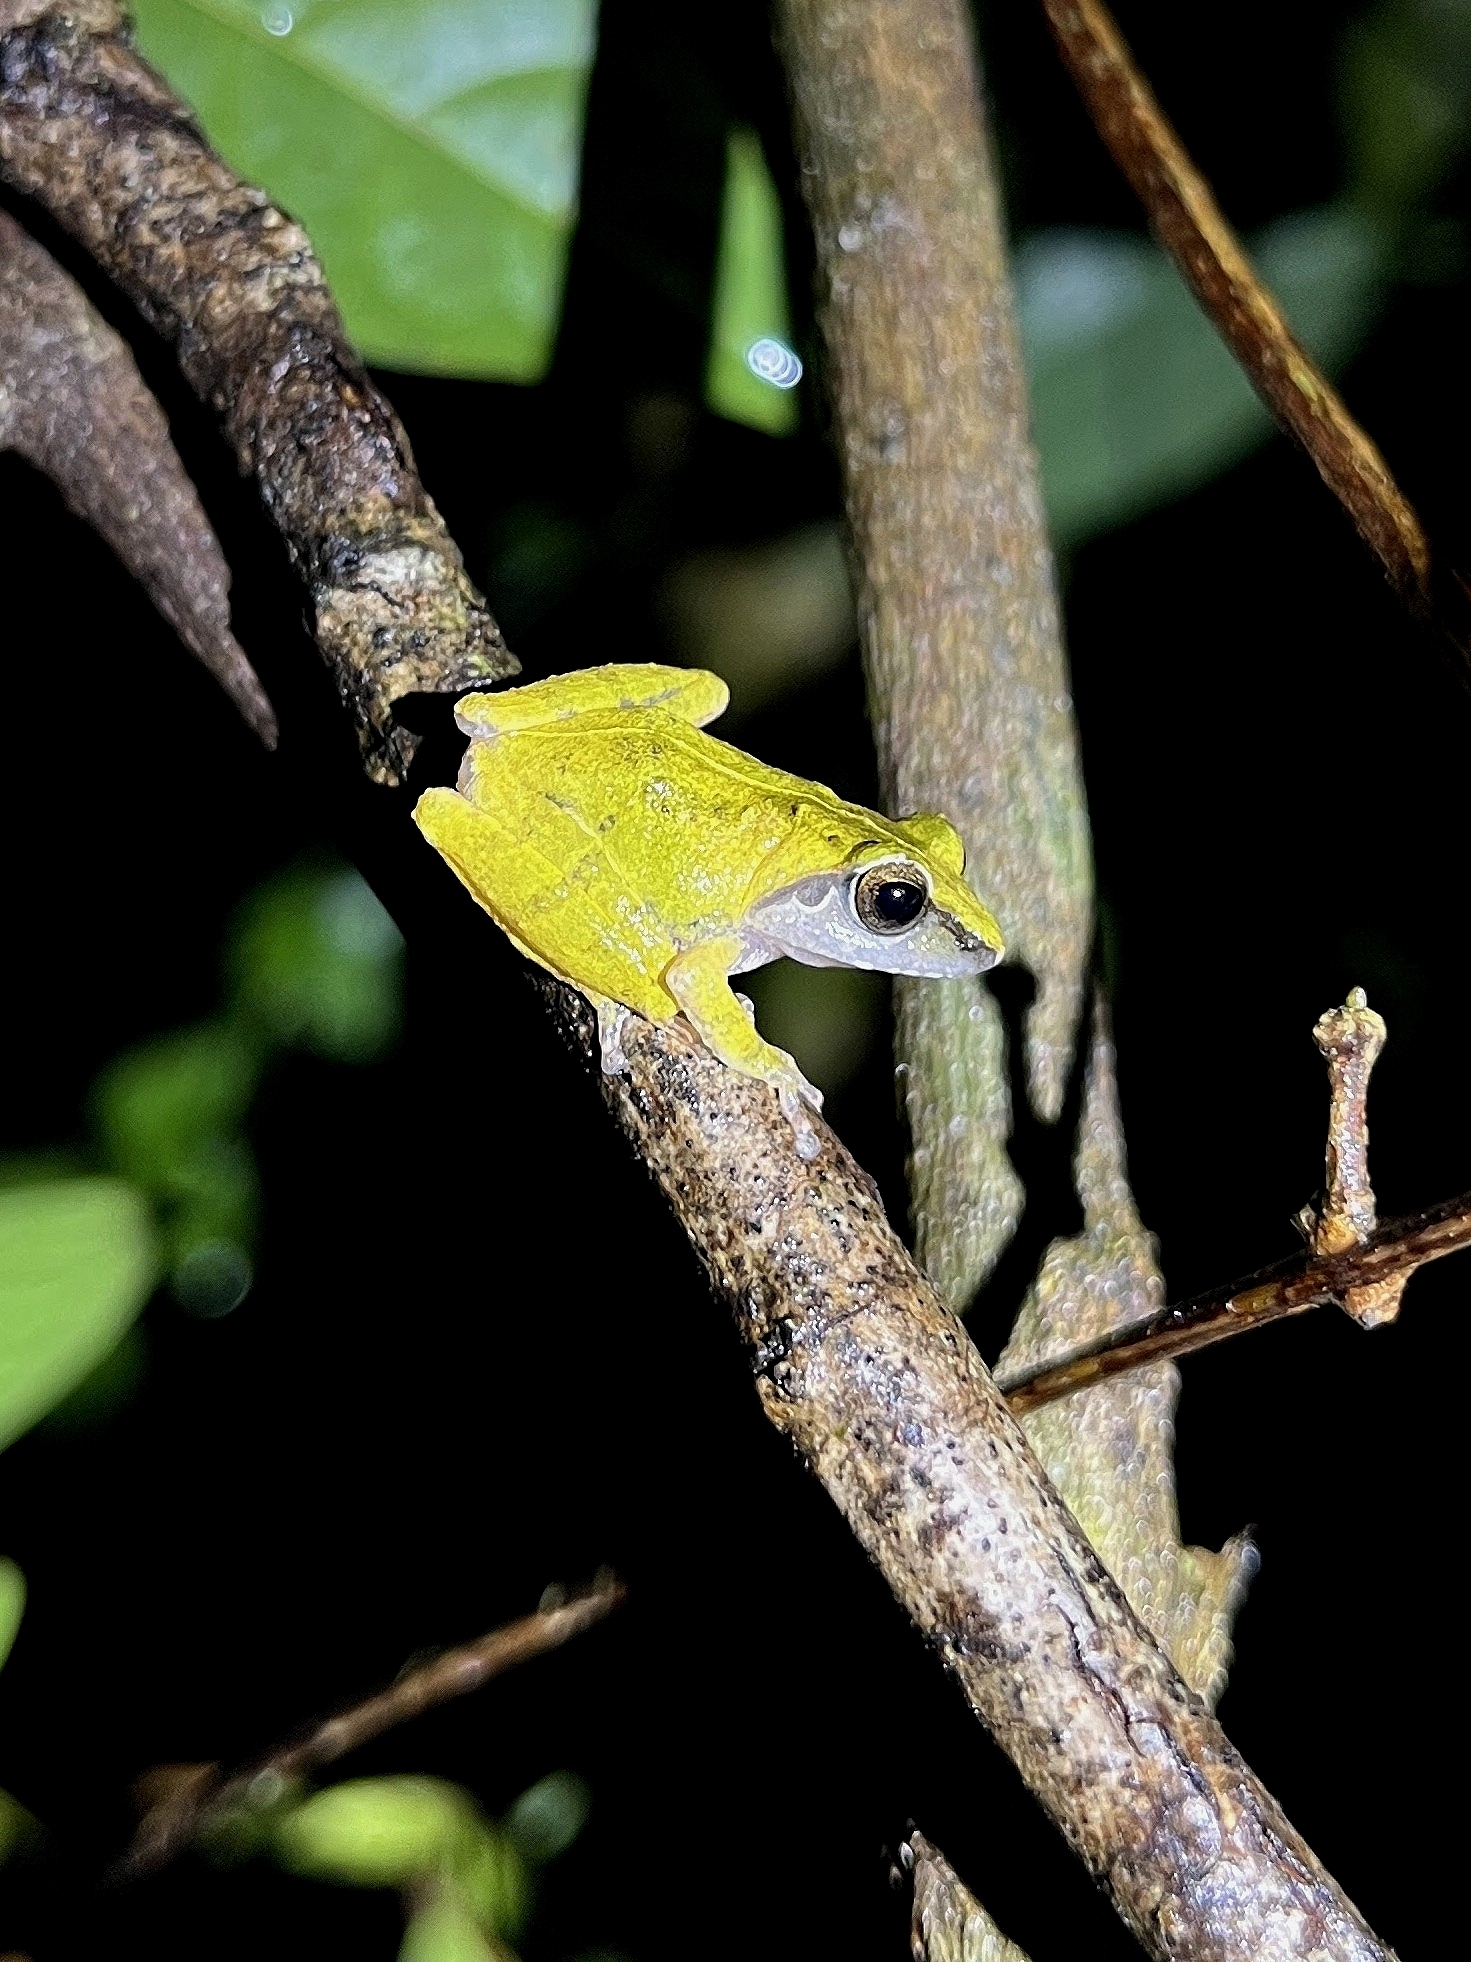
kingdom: Animalia
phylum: Chordata
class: Amphibia
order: Anura
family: Rhacophoridae
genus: Pseudophilautus
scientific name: Pseudophilautus amboli
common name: Amboli bush frog
